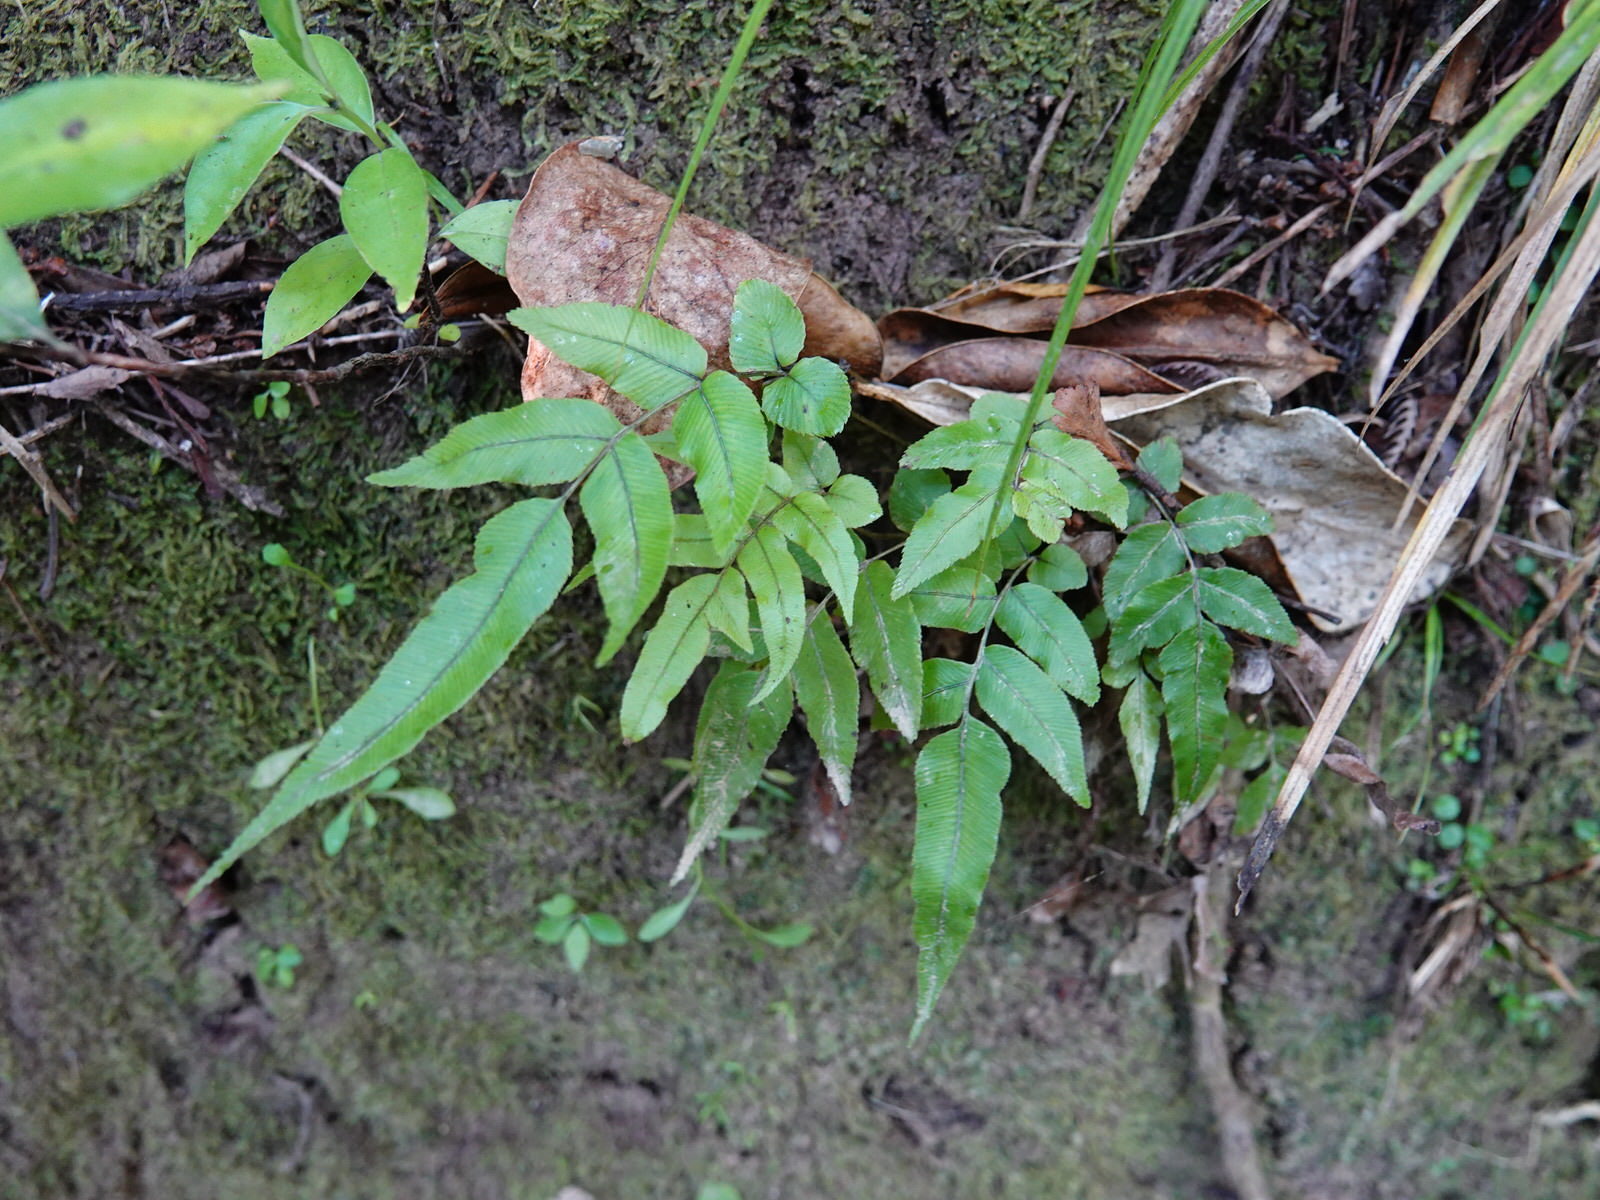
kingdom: Plantae
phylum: Tracheophyta
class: Polypodiopsida
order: Polypodiales
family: Blechnaceae
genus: Parablechnum
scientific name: Parablechnum procerum
